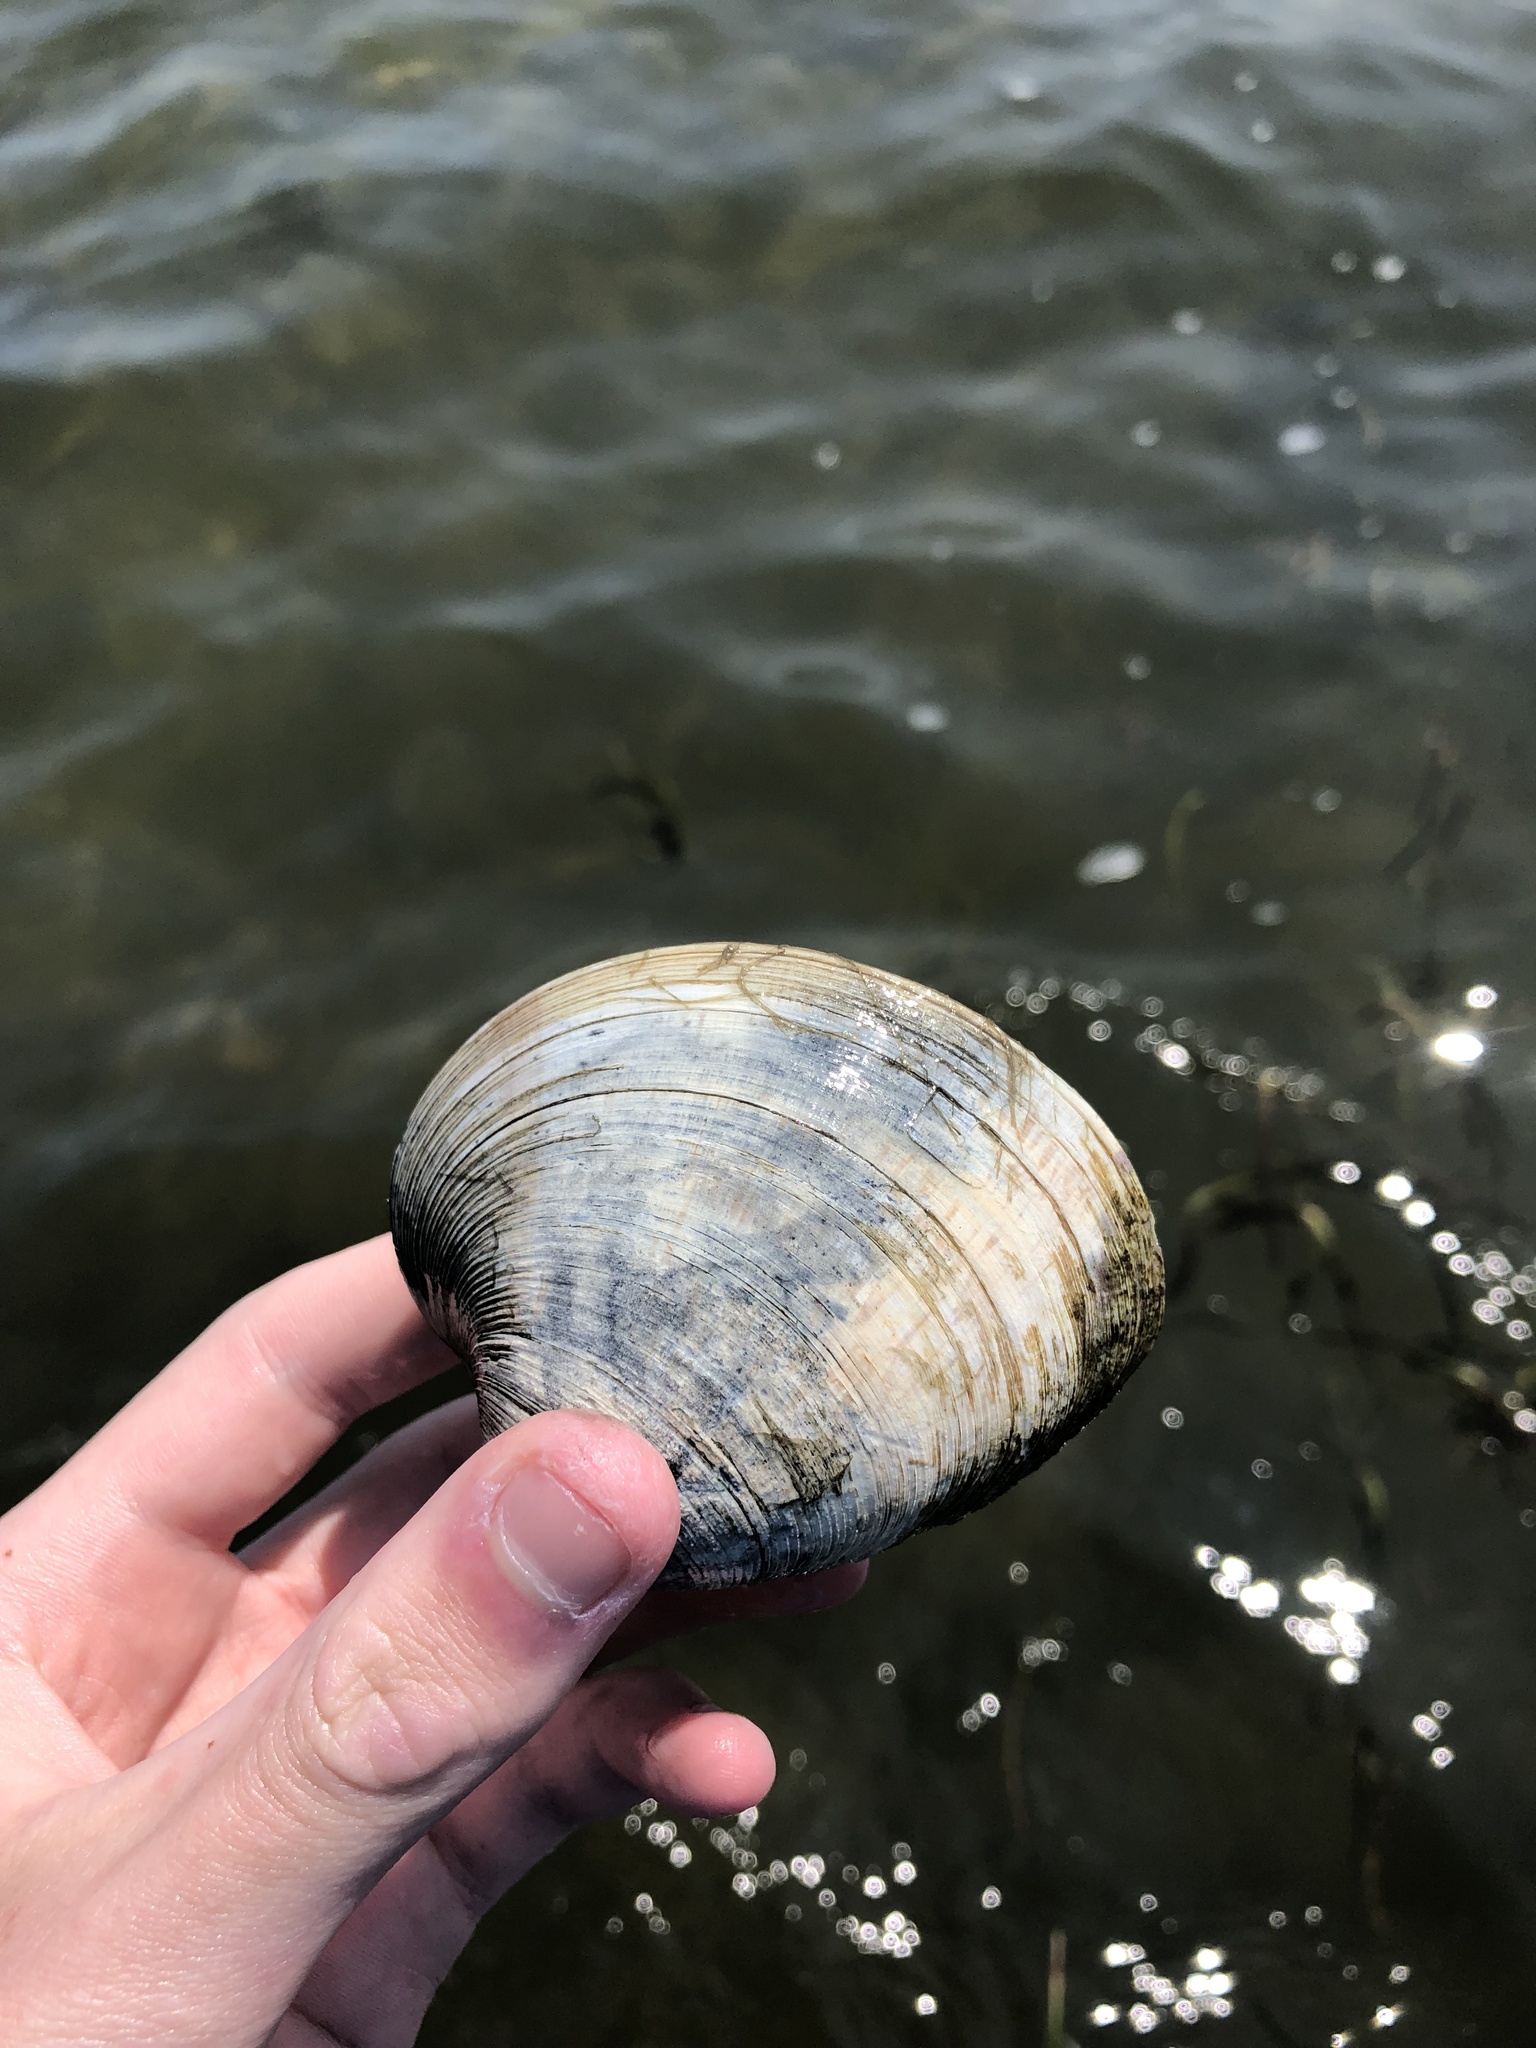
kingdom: Animalia
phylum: Mollusca
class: Bivalvia
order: Venerida
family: Veneridae
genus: Mercenaria
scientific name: Mercenaria mercenaria
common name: American hard-shelled clam
